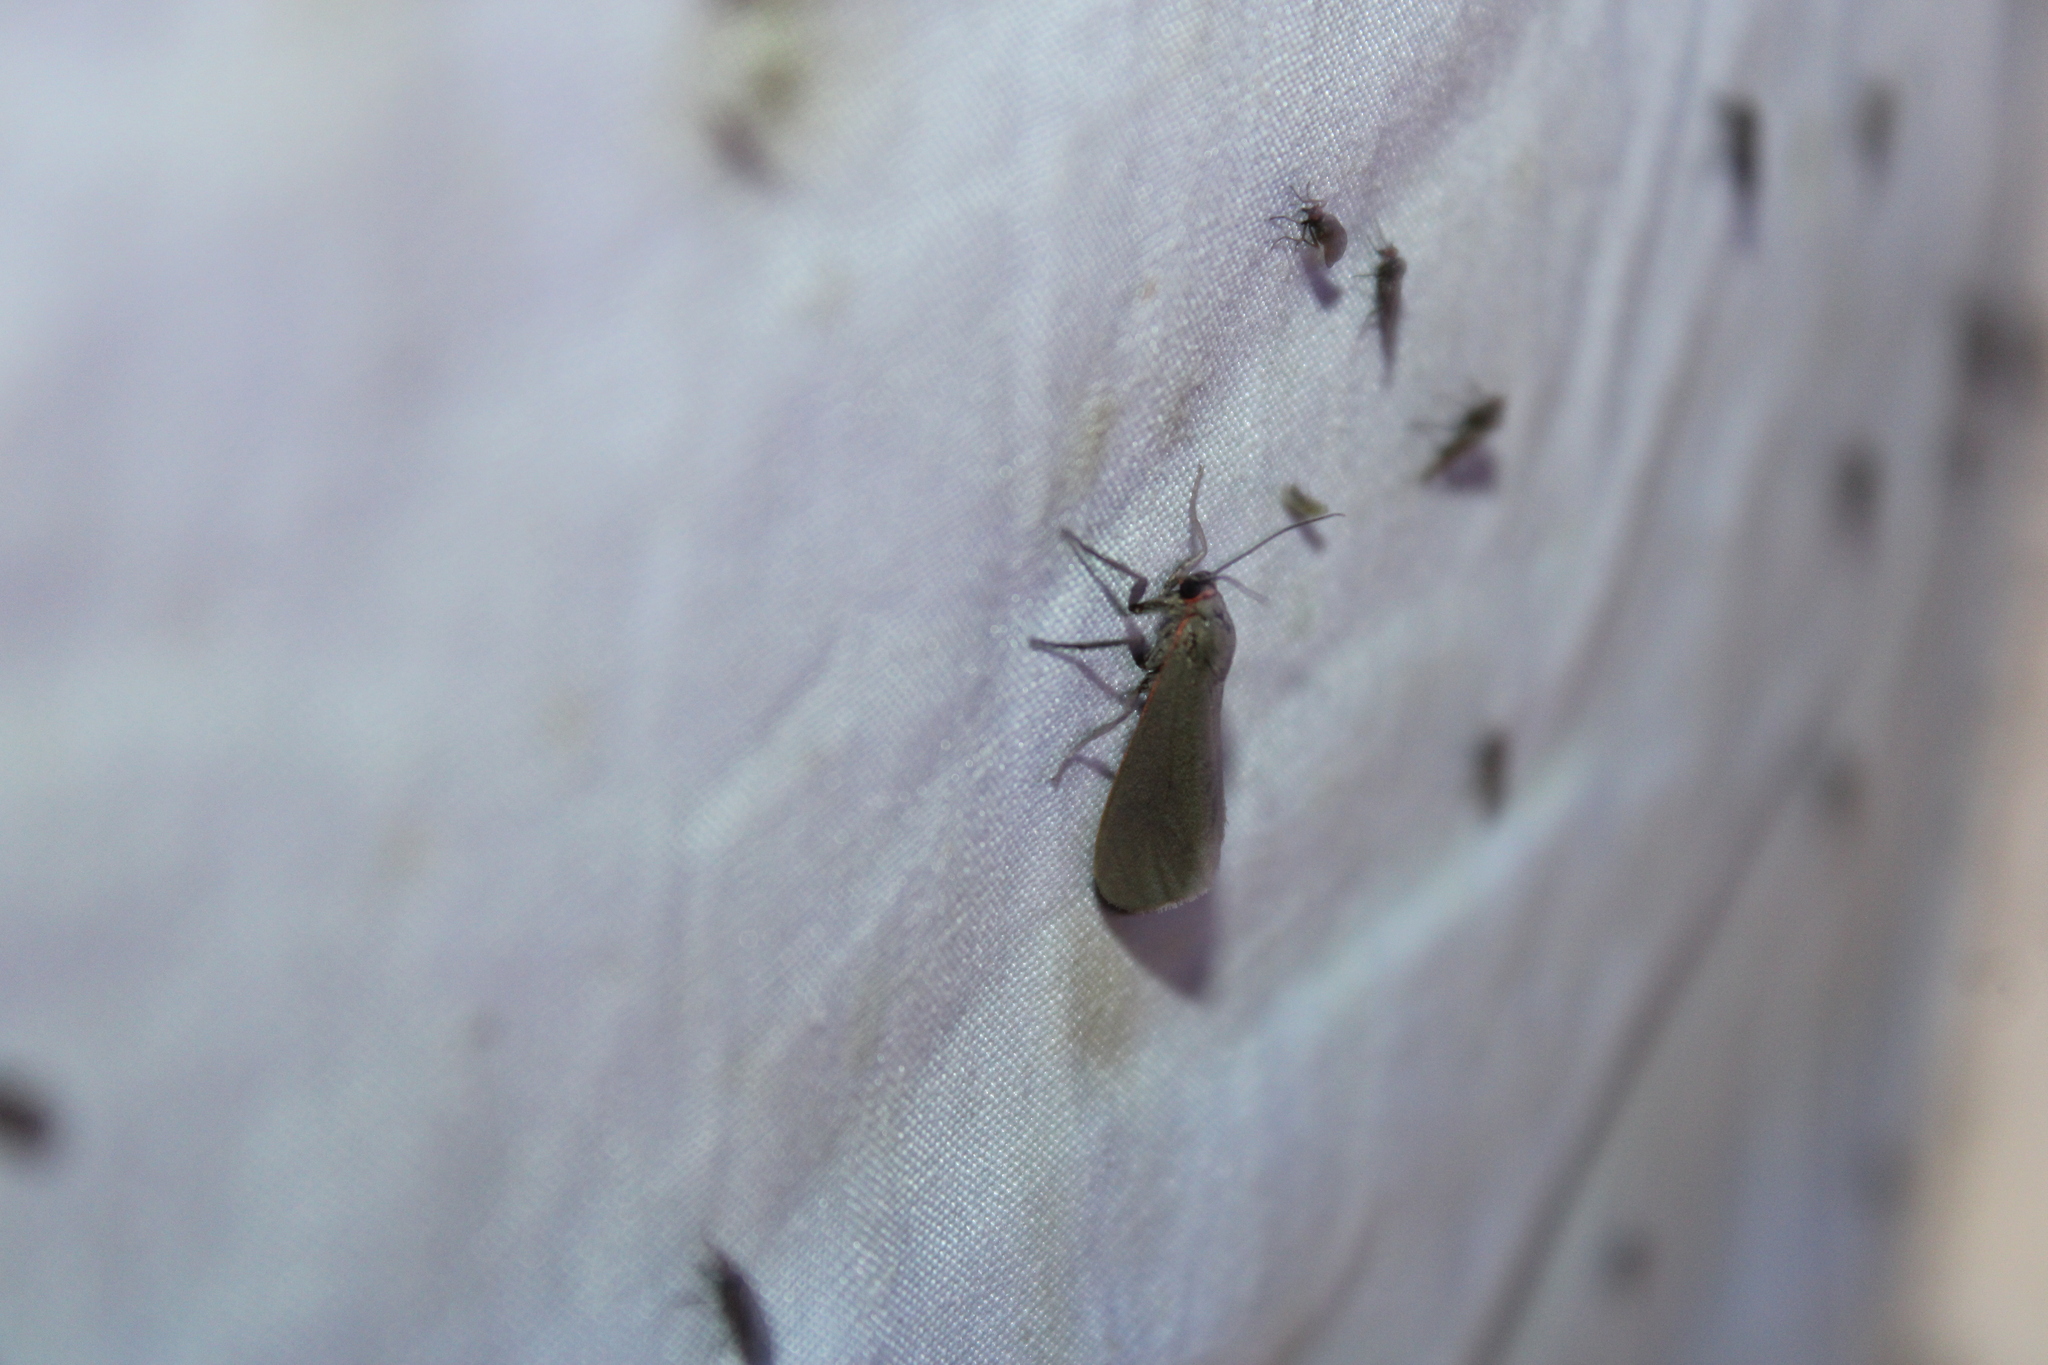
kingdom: Animalia
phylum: Arthropoda
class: Insecta
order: Lepidoptera
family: Erebidae
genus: Virbia
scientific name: Virbia laeta
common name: Joyful holomelina moth
